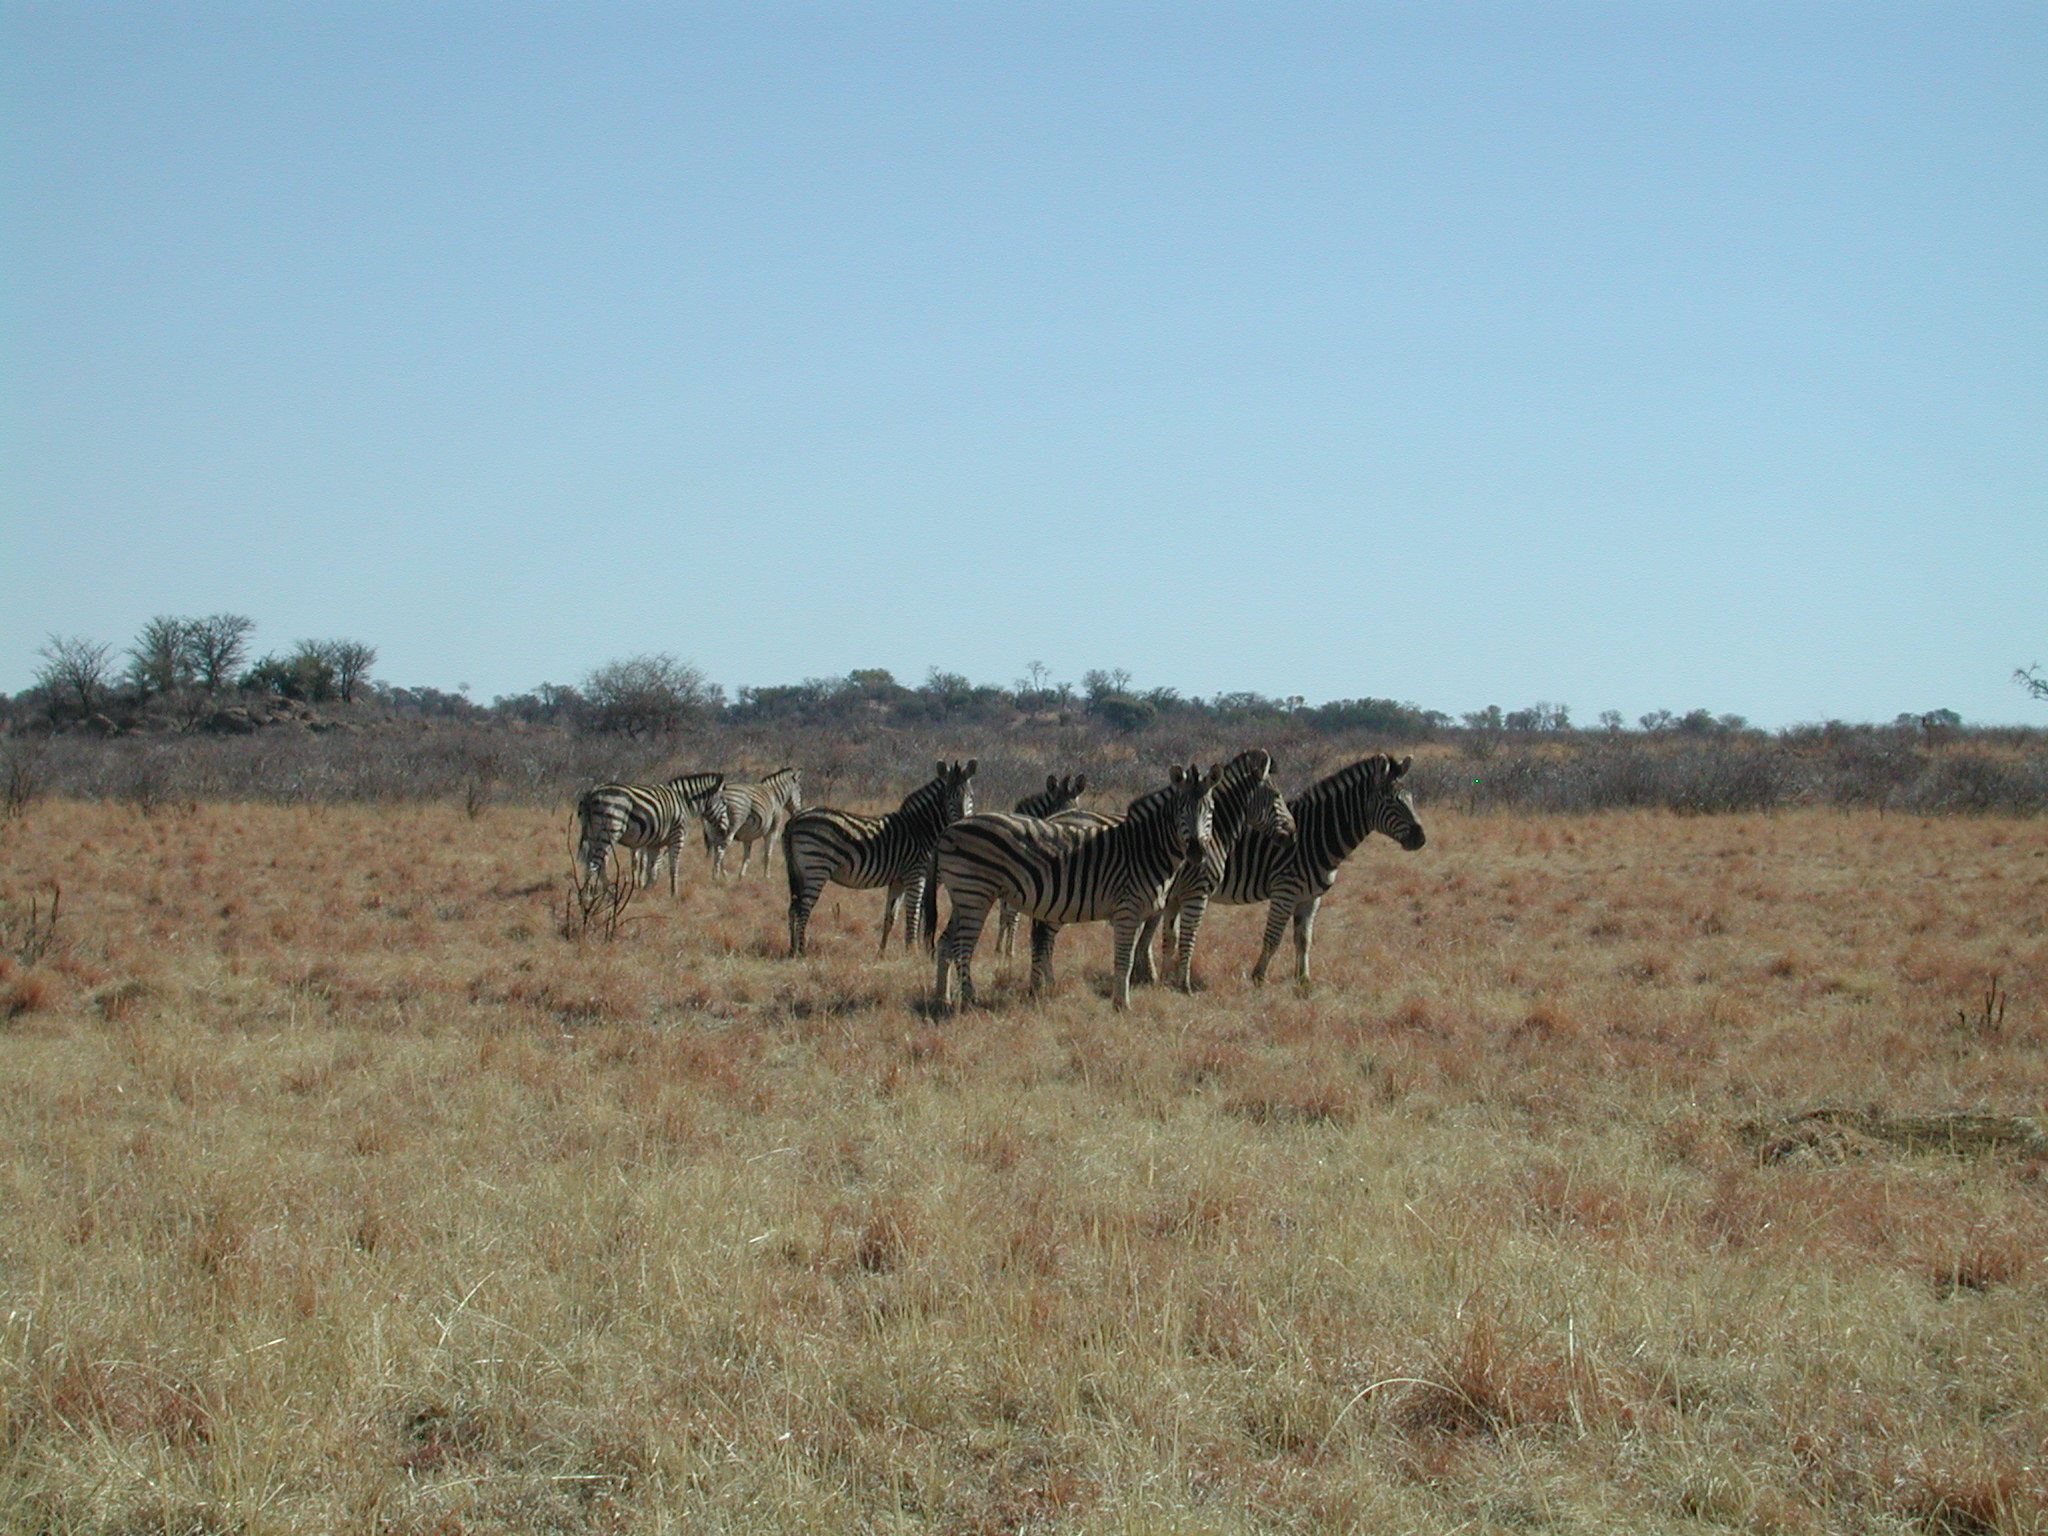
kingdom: Animalia
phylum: Chordata
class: Mammalia
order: Perissodactyla
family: Equidae
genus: Equus
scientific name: Equus quagga
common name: Plains zebra
